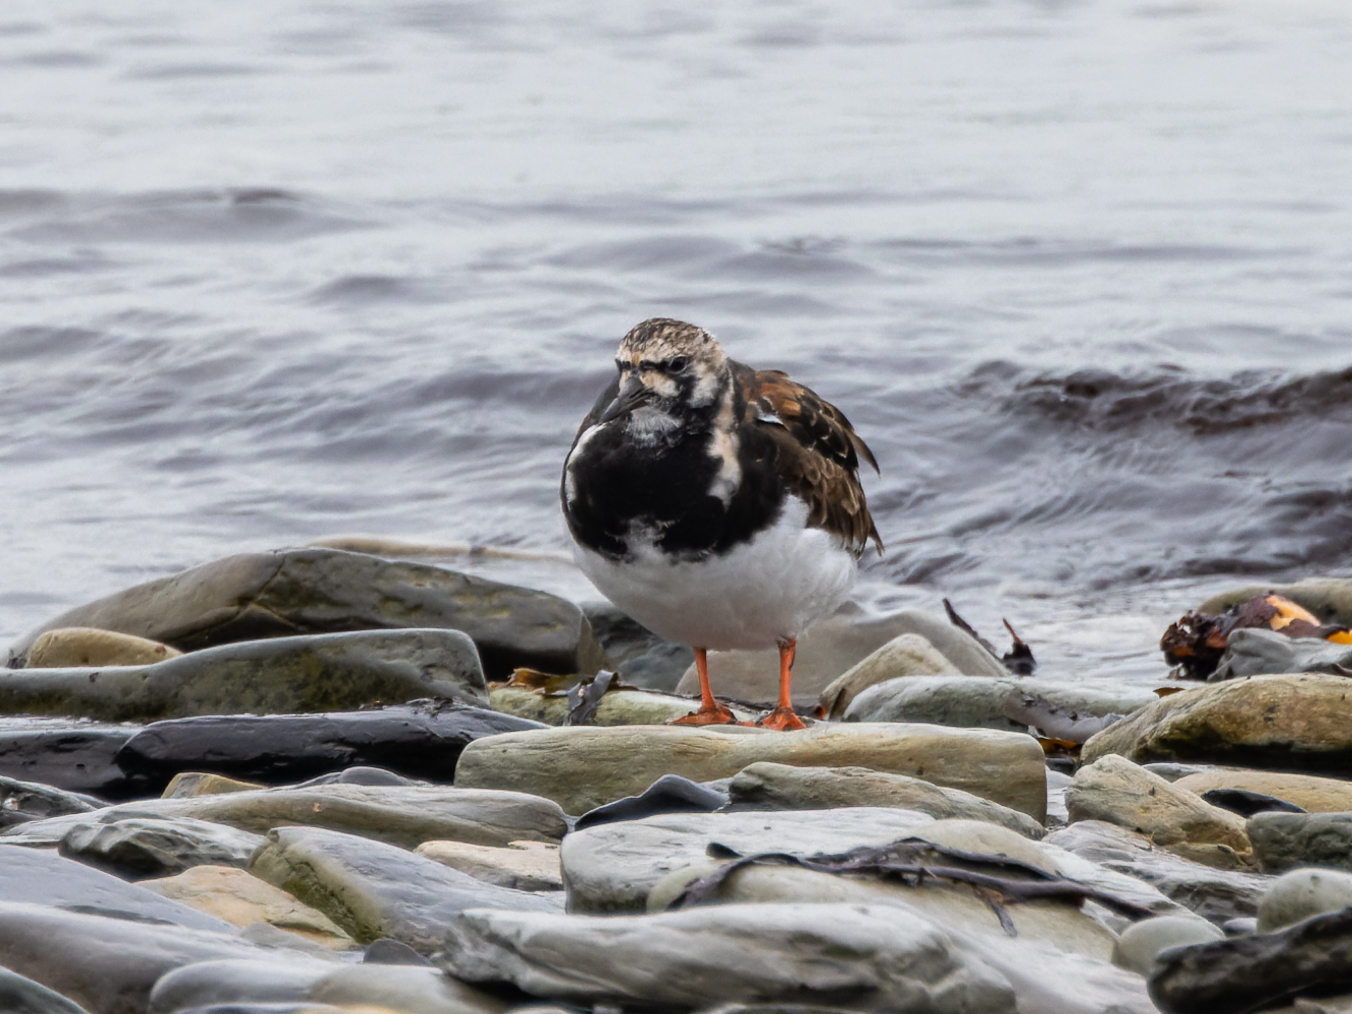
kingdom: Animalia
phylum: Chordata
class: Aves
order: Charadriiformes
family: Scolopacidae
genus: Arenaria
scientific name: Arenaria interpres
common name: Ruddy turnstone
